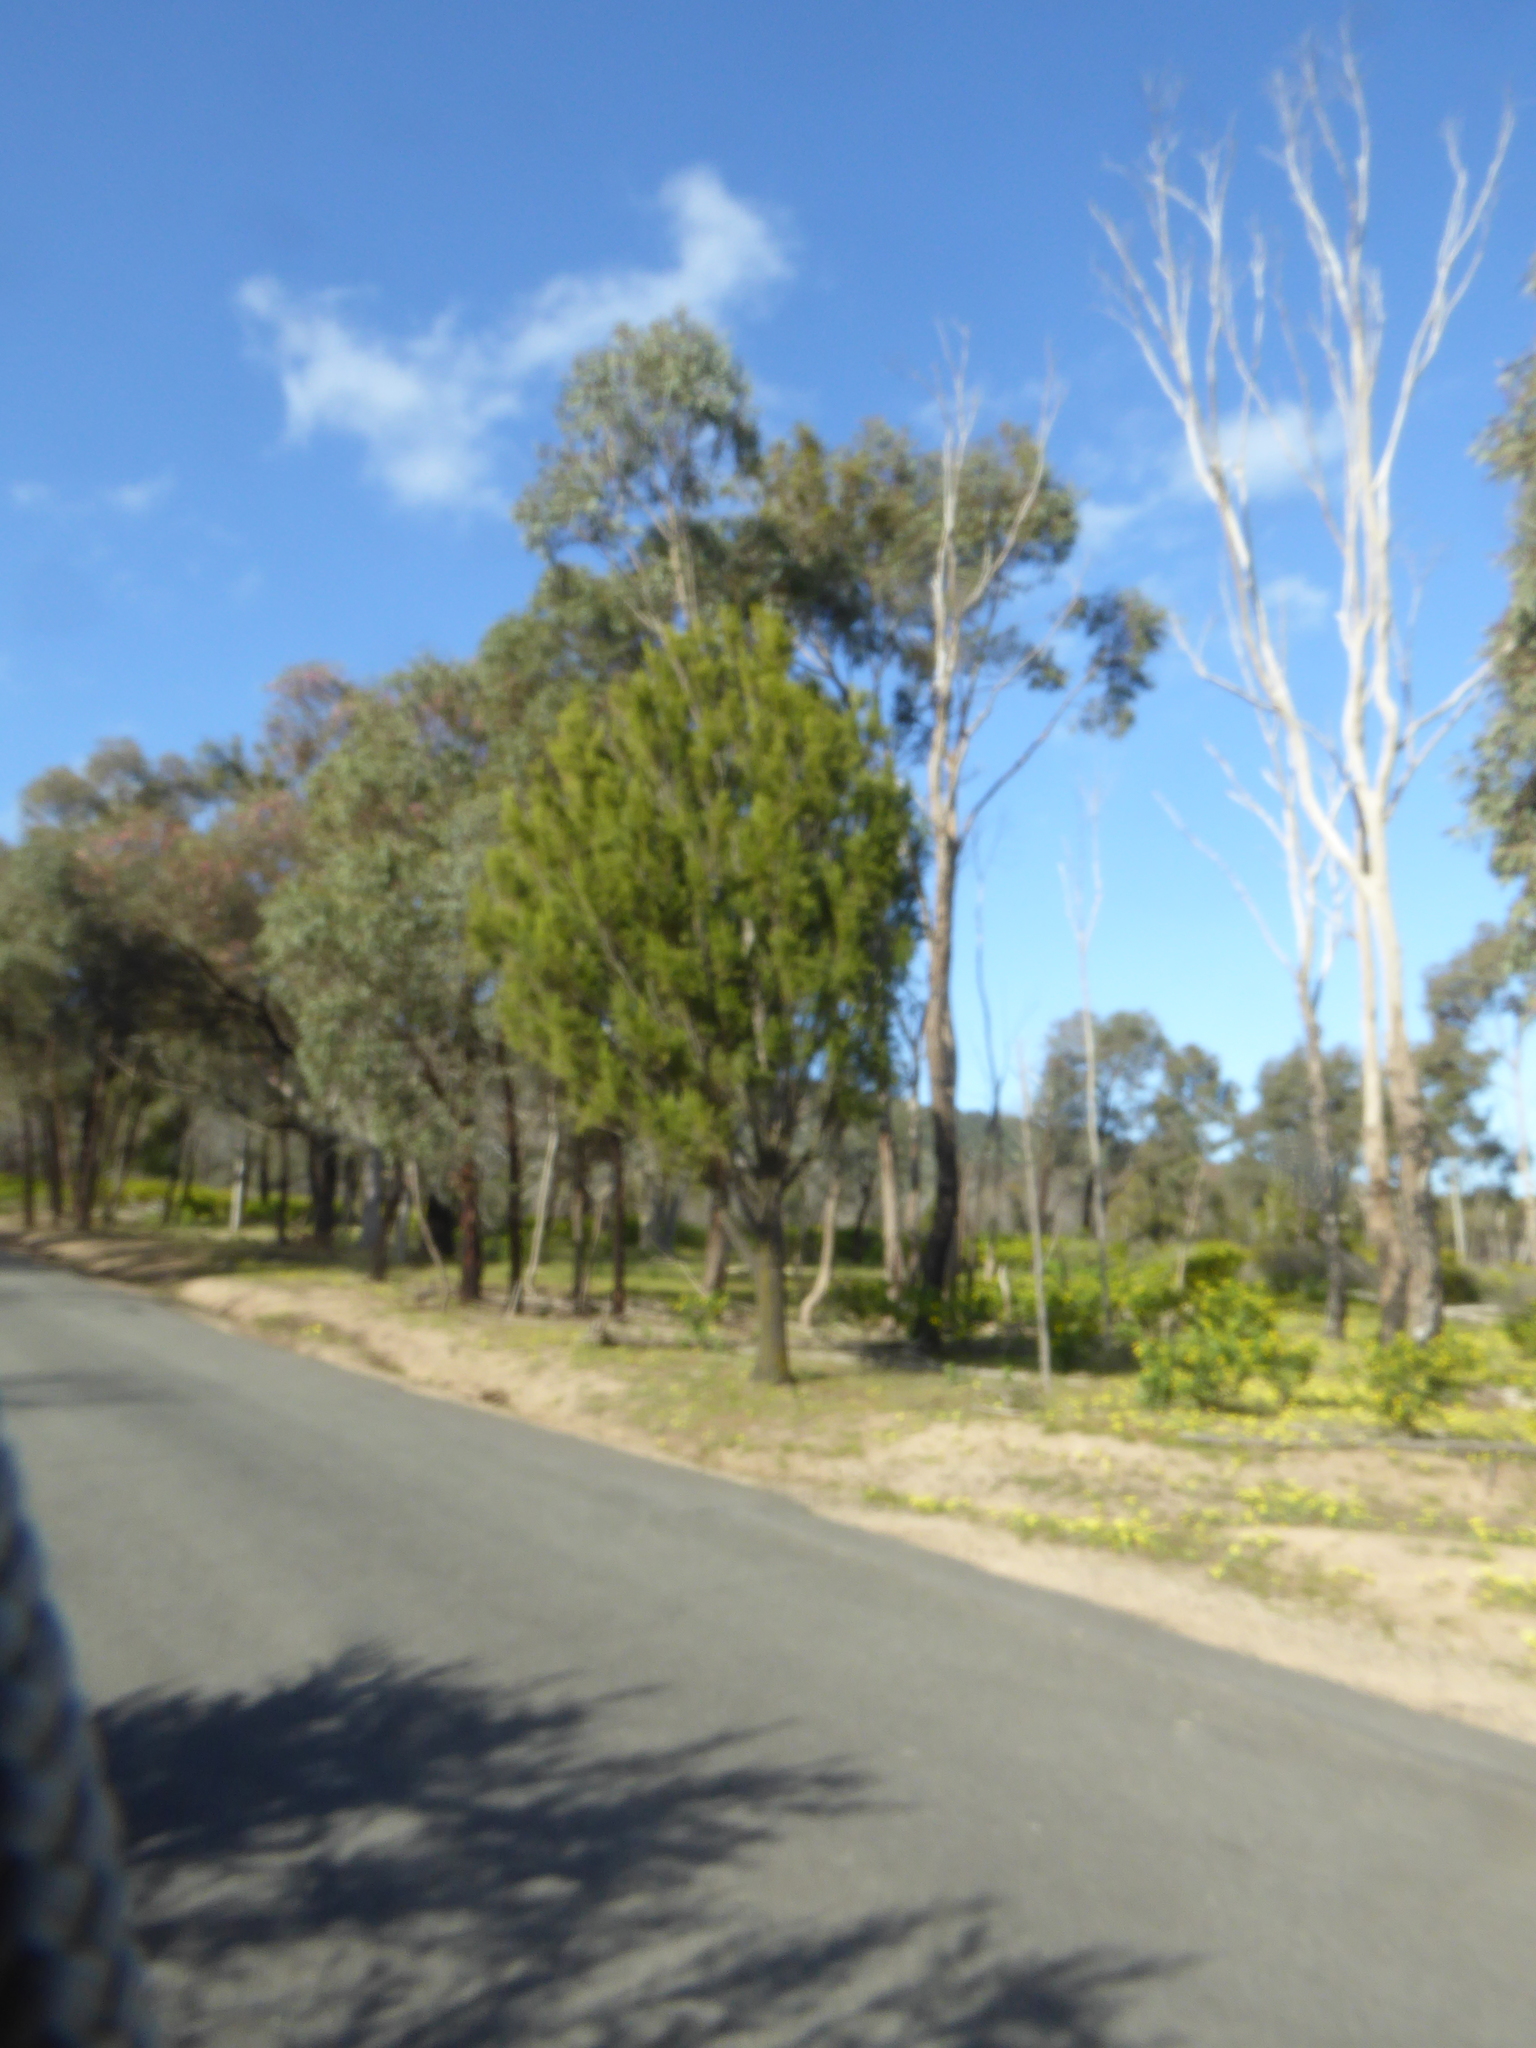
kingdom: Plantae
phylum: Tracheophyta
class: Magnoliopsida
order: Santalales
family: Santalaceae
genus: Exocarpos
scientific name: Exocarpos cupressiformis
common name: Cherry ballart
